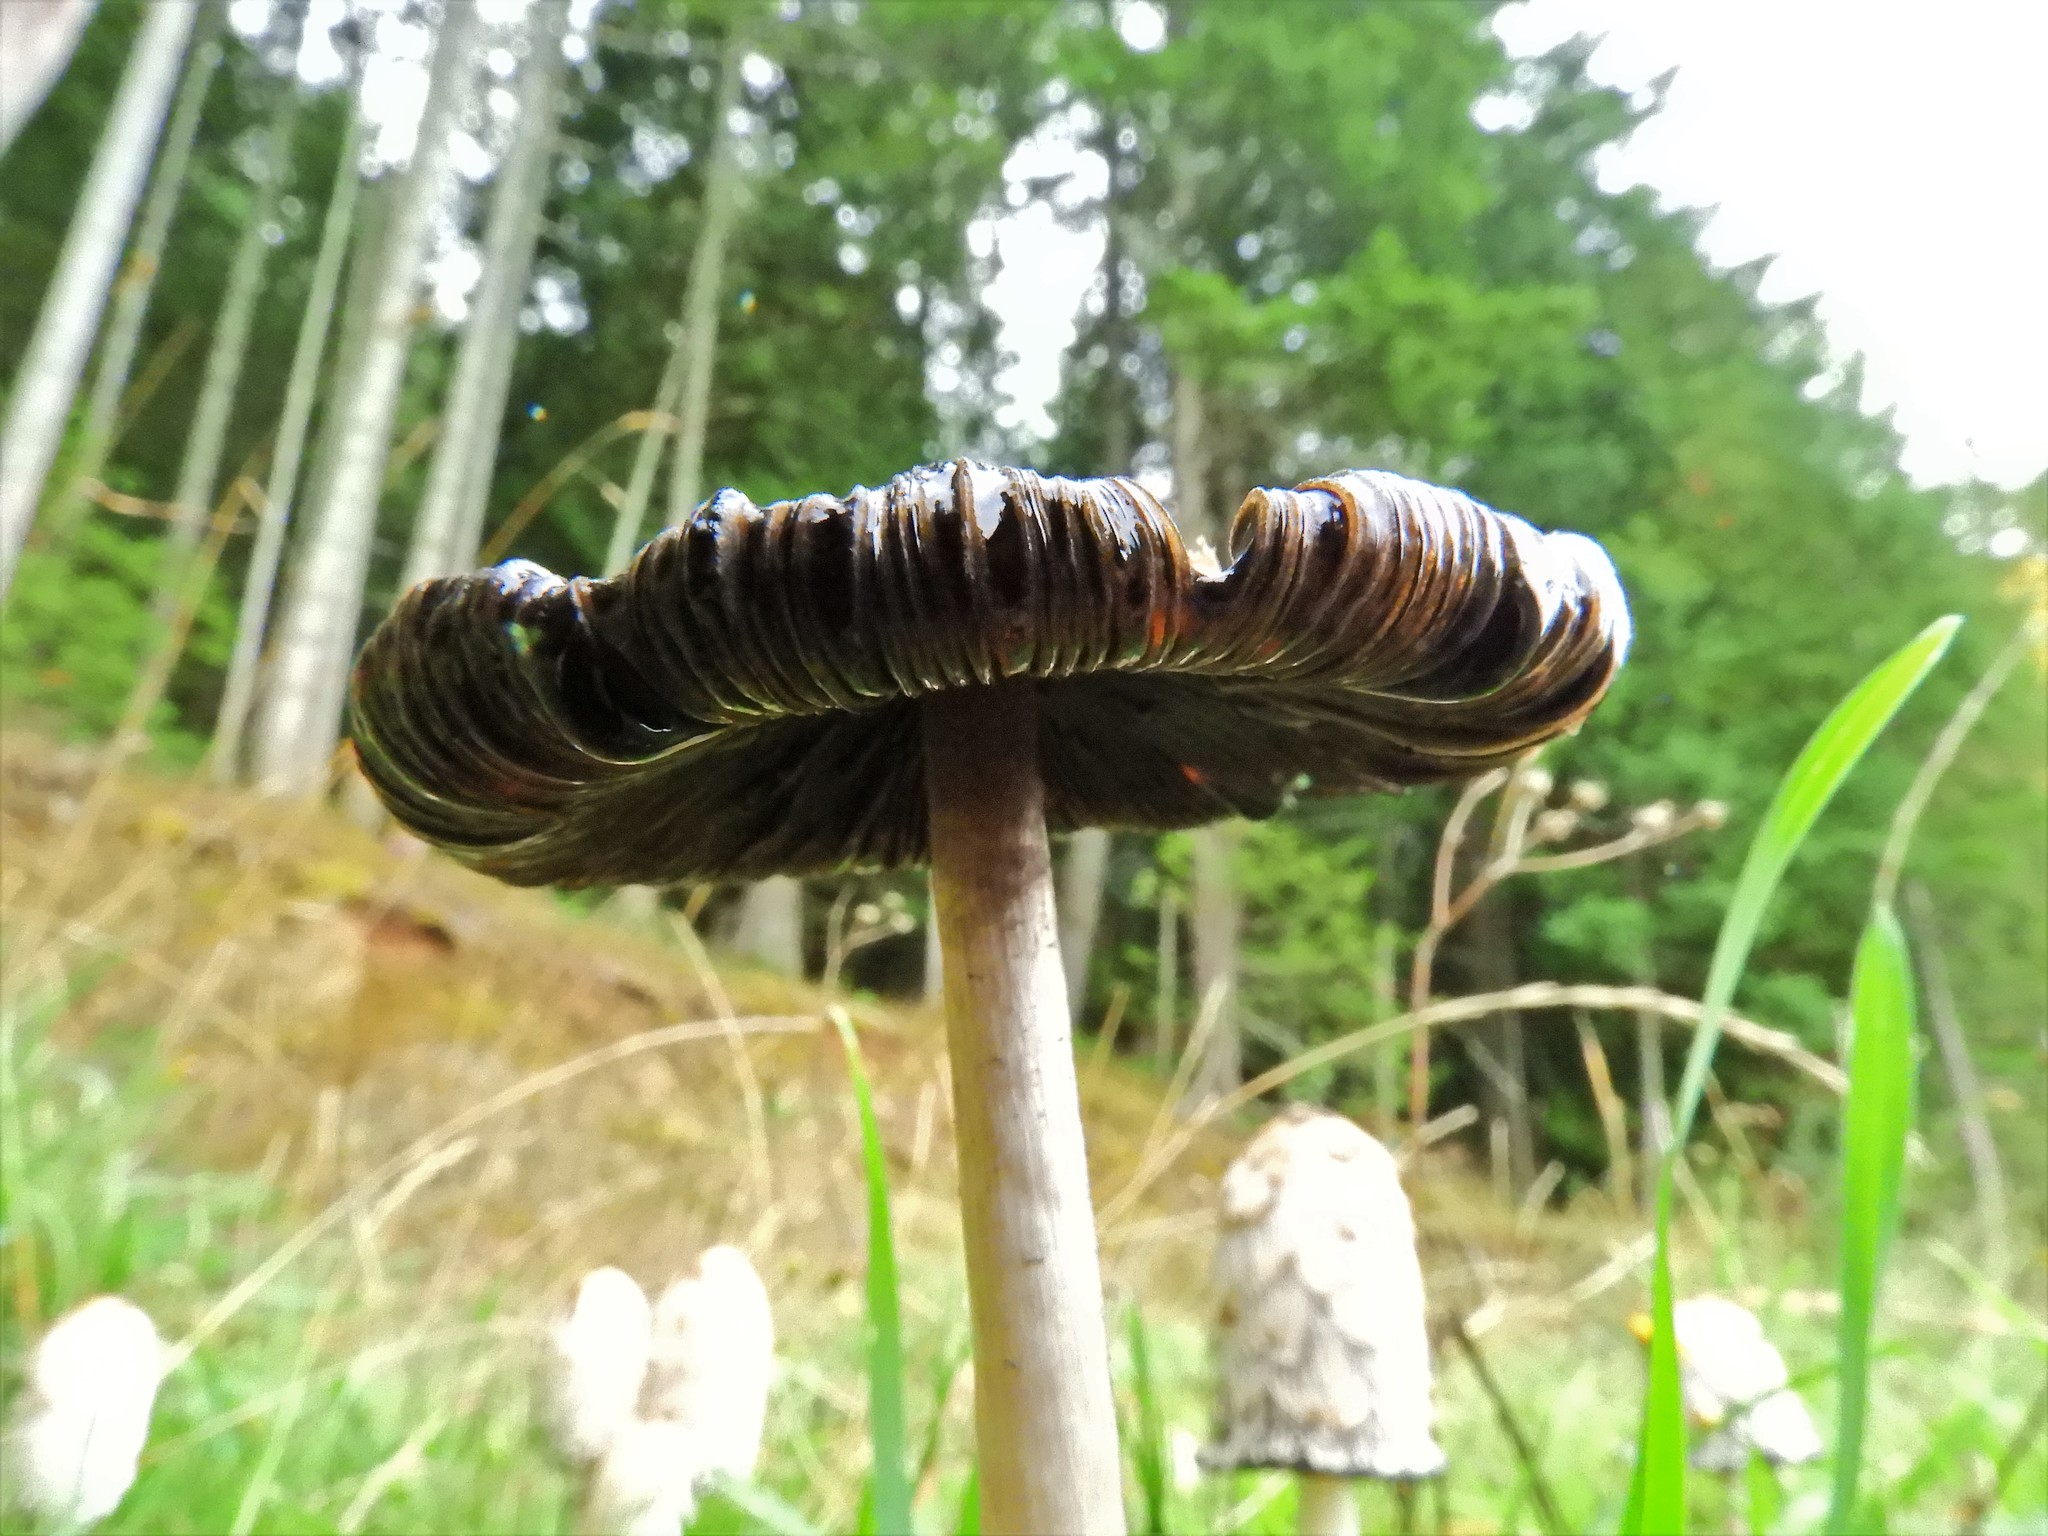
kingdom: Fungi
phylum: Basidiomycota
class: Agaricomycetes
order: Agaricales
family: Agaricaceae
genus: Coprinus
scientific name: Coprinus comatus
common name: Lawyer's wig
